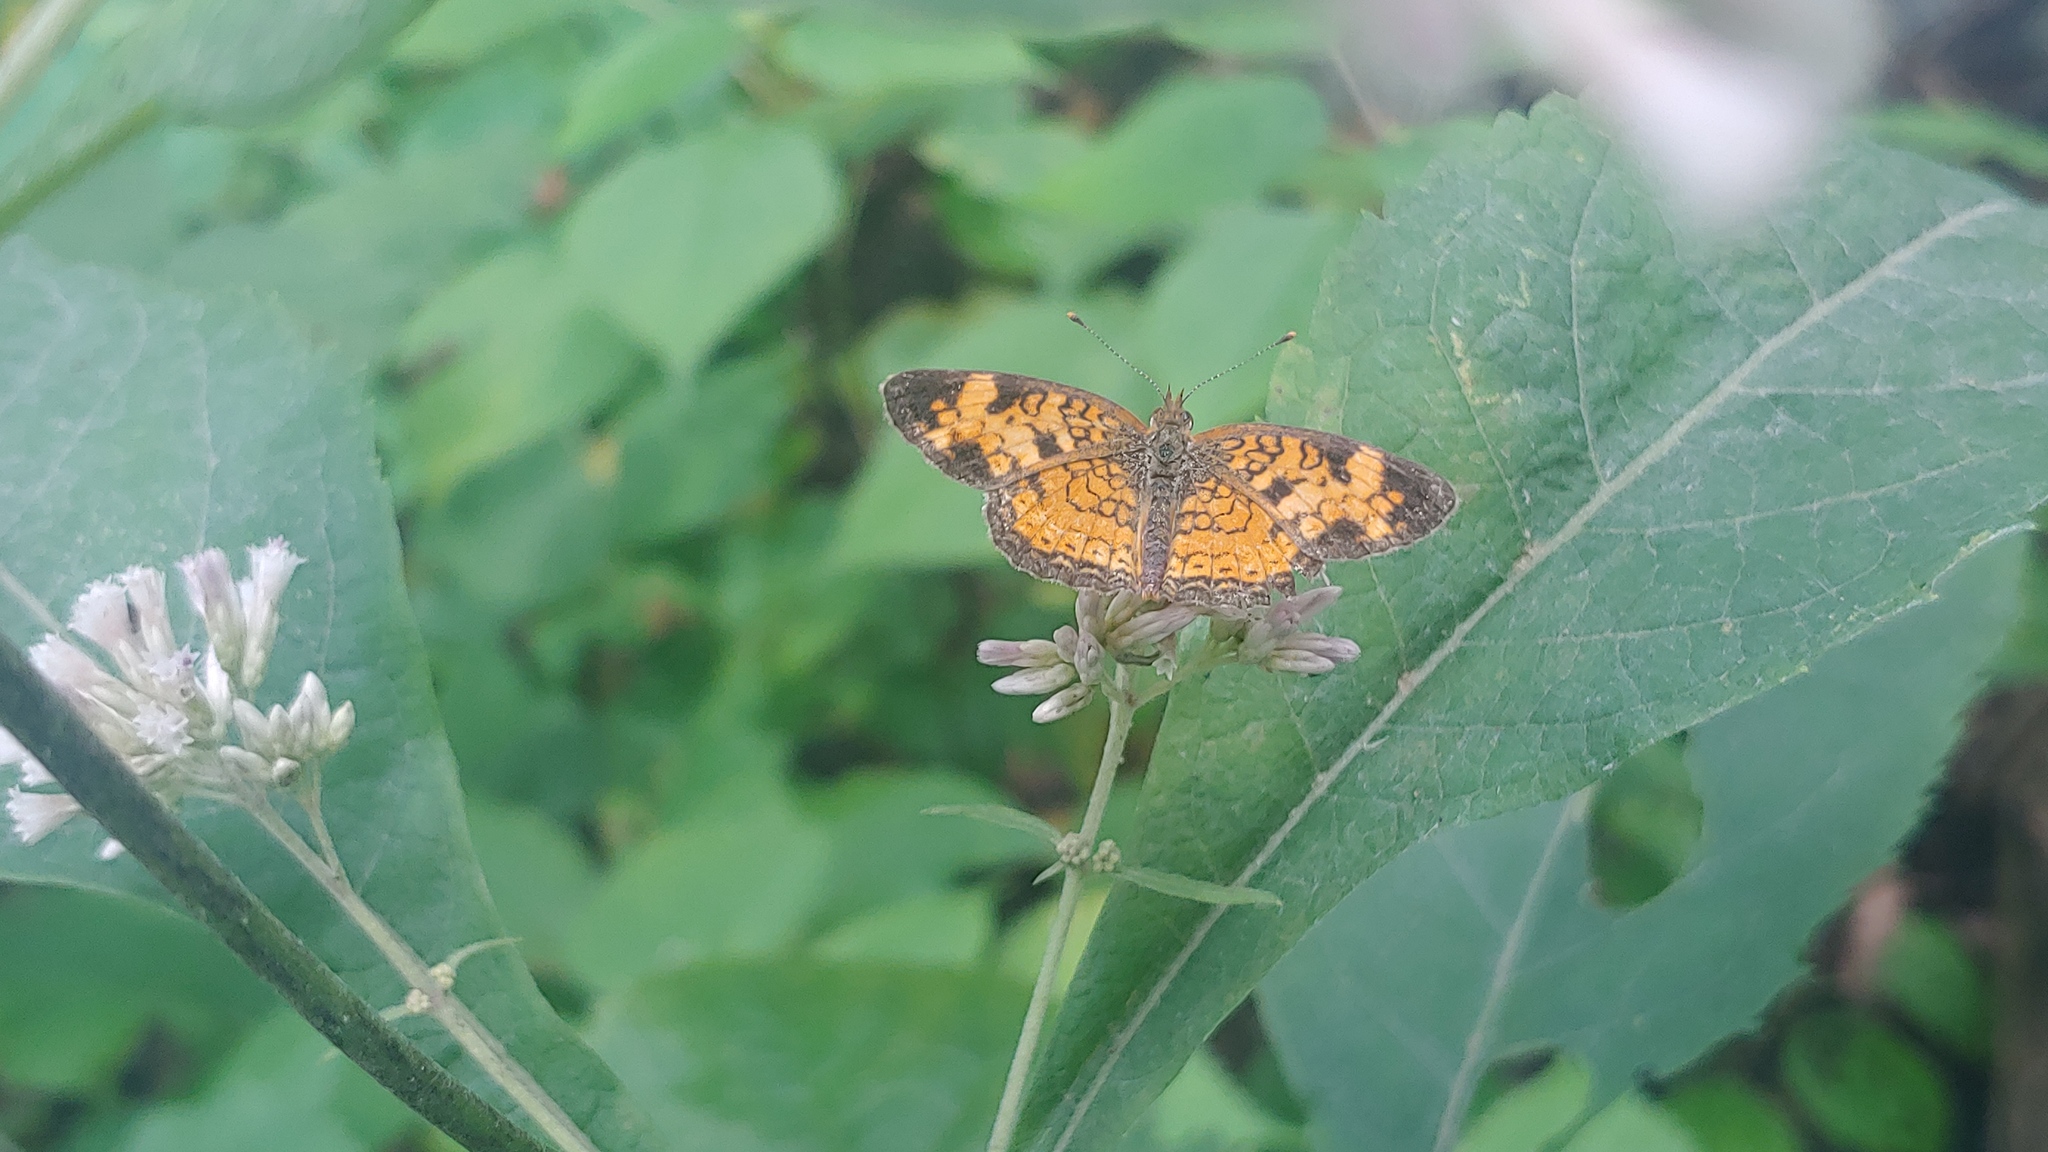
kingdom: Animalia
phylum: Arthropoda
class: Insecta
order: Lepidoptera
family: Nymphalidae
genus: Phyciodes
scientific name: Phyciodes tharos
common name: Pearl crescent
